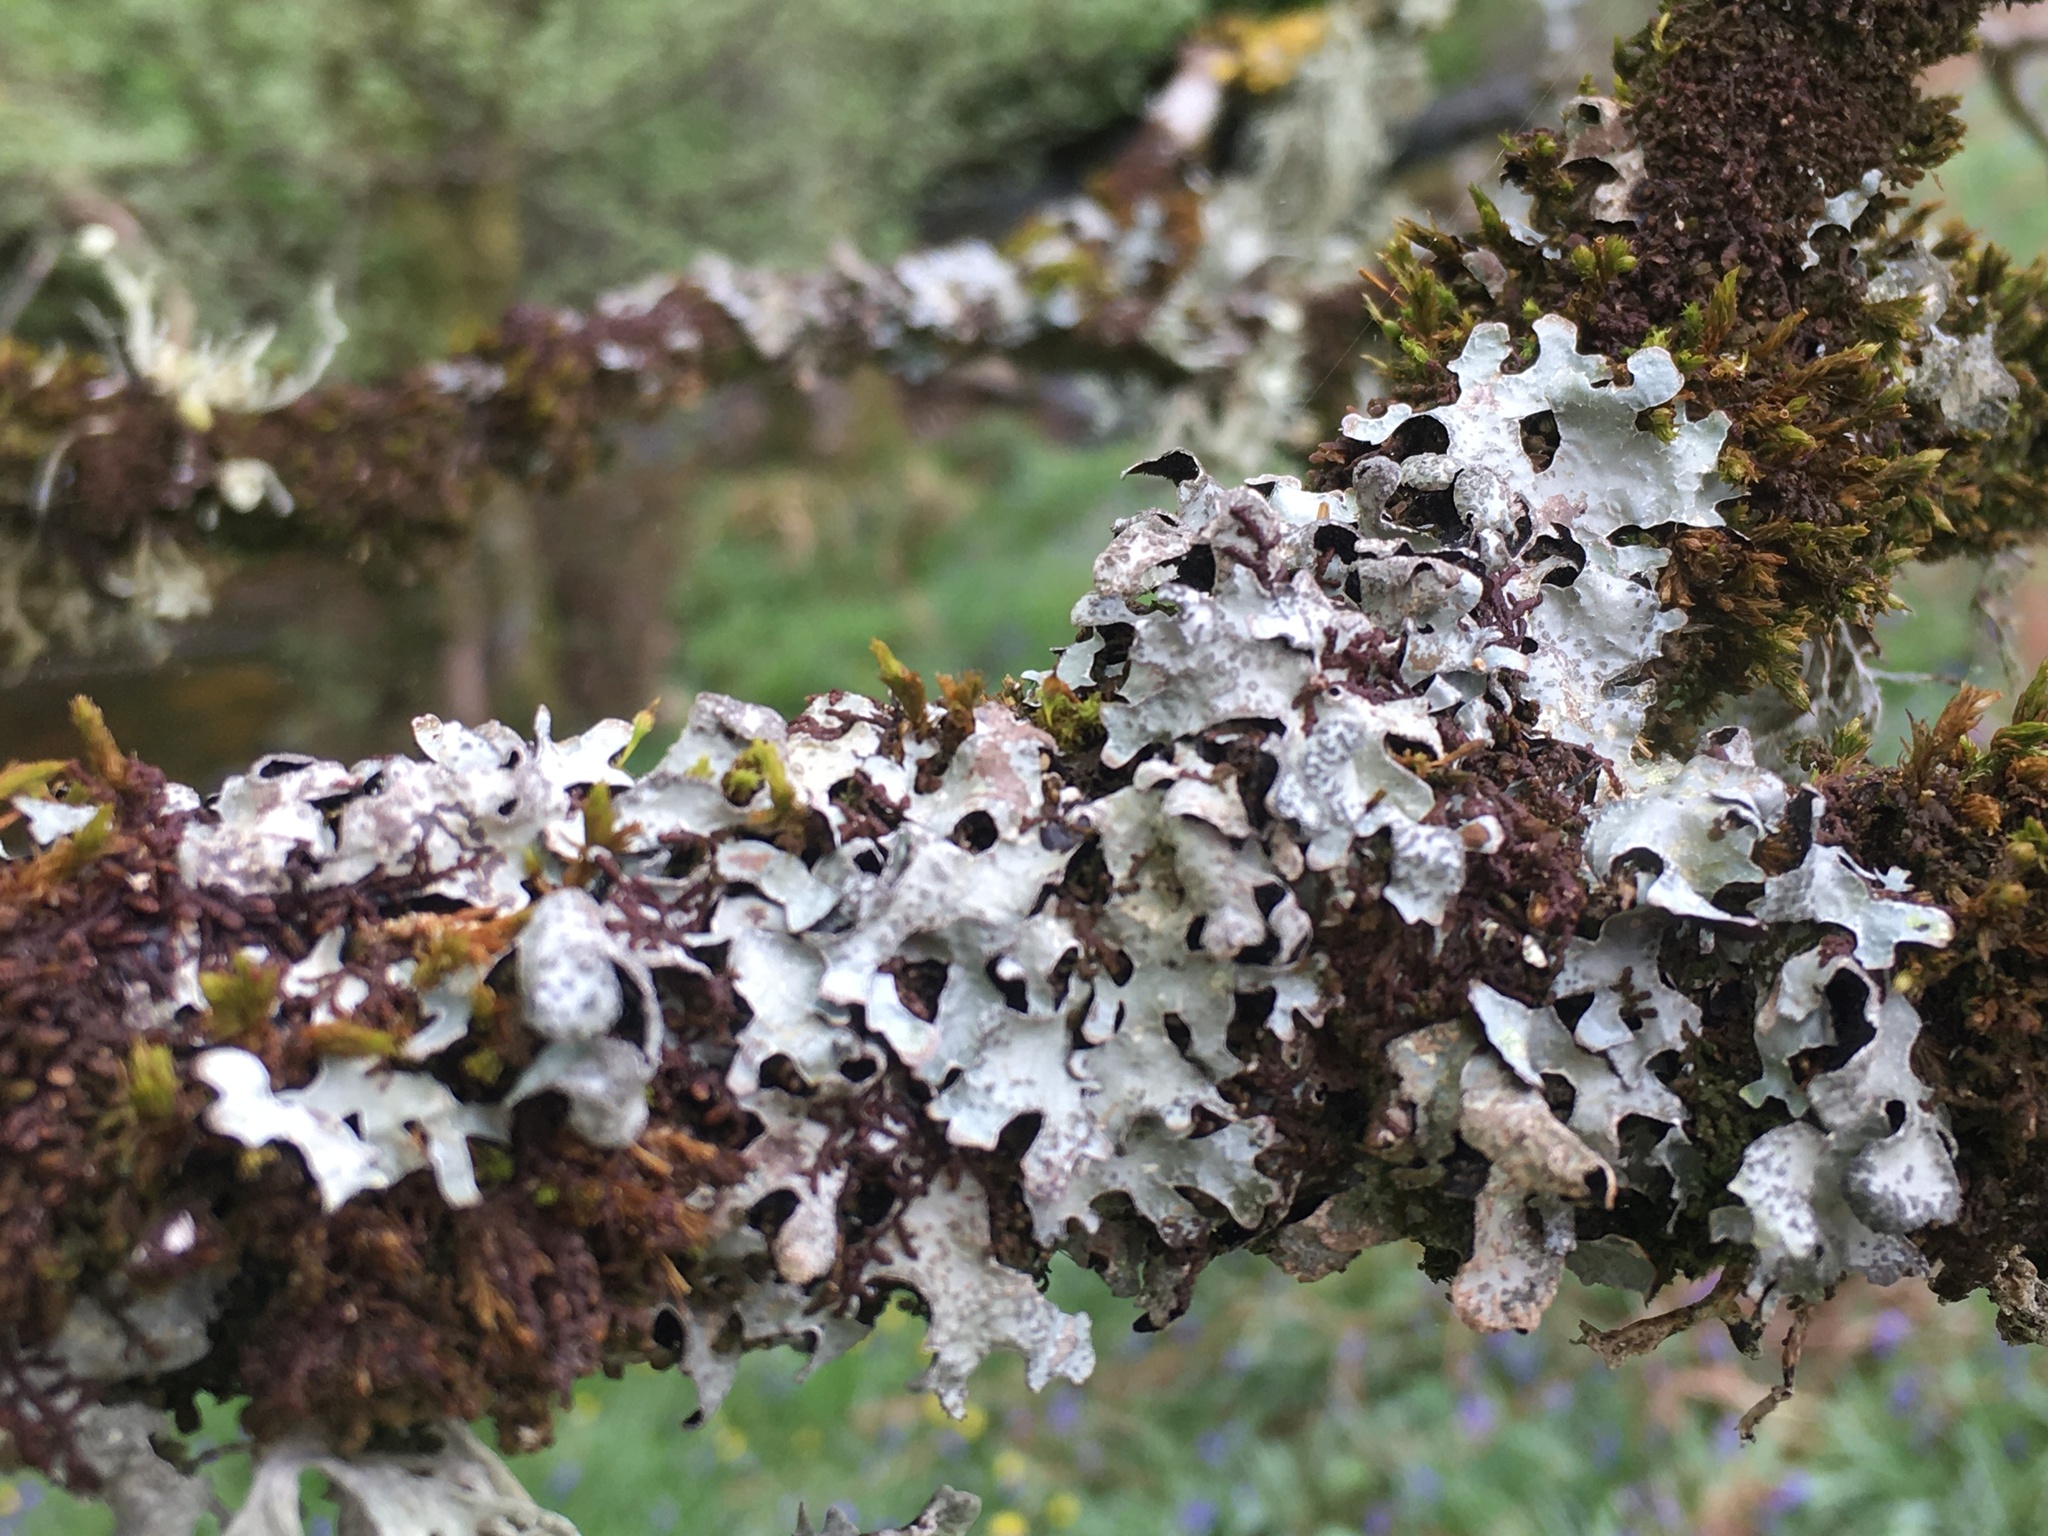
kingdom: Fungi
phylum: Ascomycota
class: Lecanoromycetes
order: Lecanorales
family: Parmeliaceae
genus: Parmelia
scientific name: Parmelia sulcata
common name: Netted shield lichen
